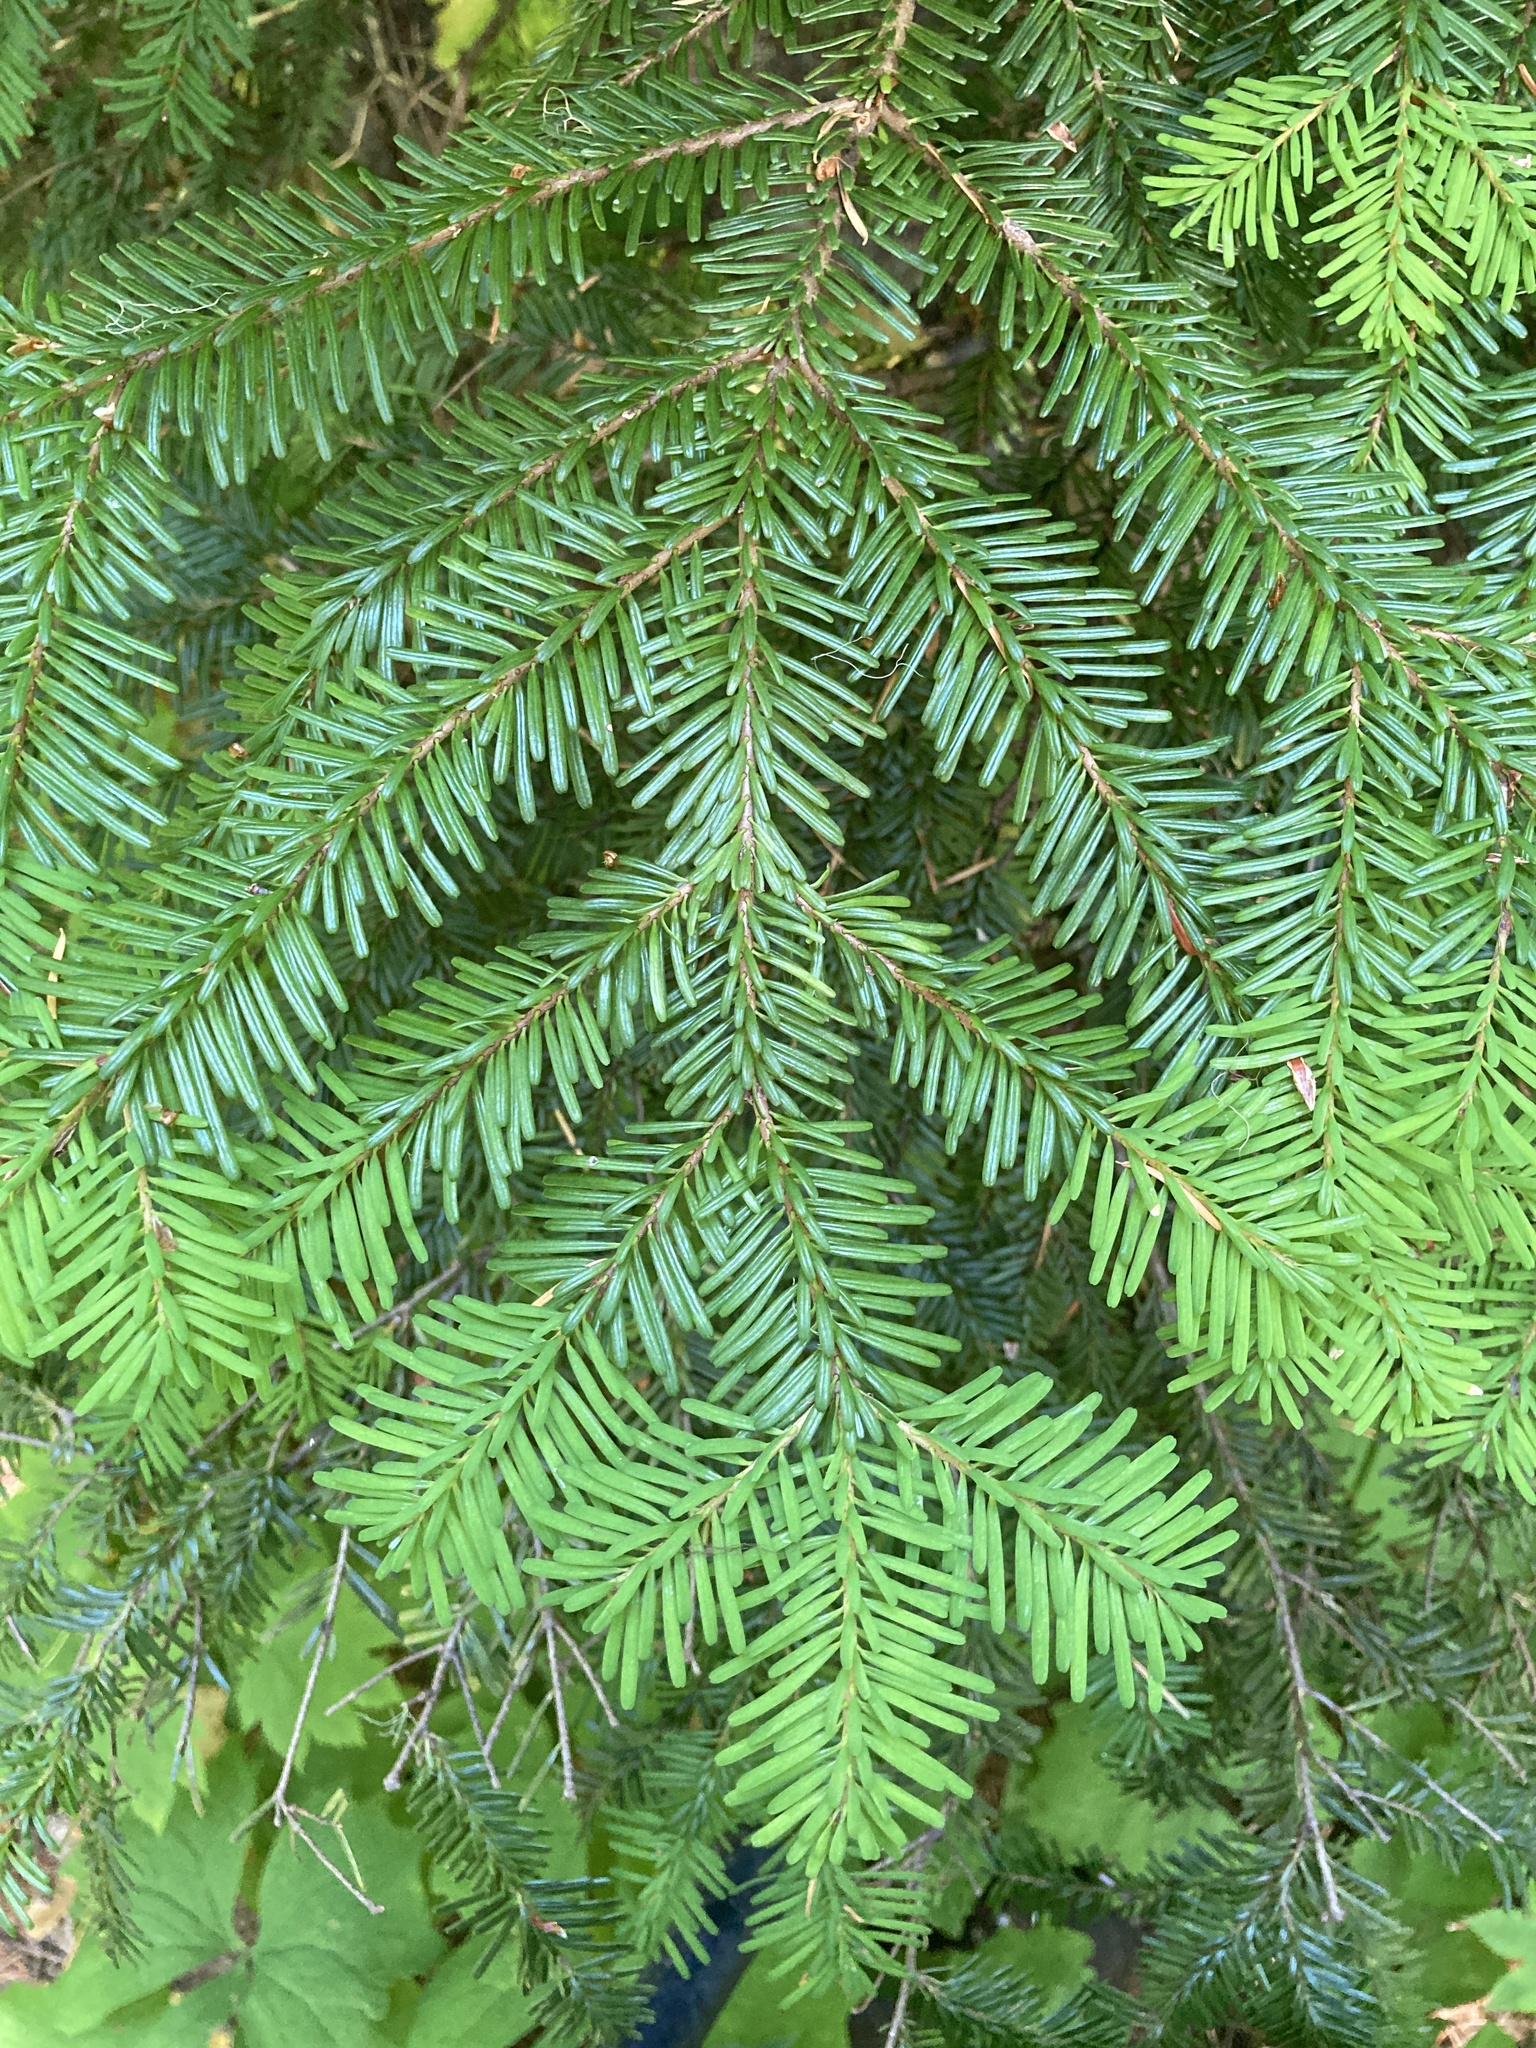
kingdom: Plantae
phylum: Tracheophyta
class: Pinopsida
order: Pinales
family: Pinaceae
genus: Abies
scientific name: Abies amabilis
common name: Pacific silver fir
